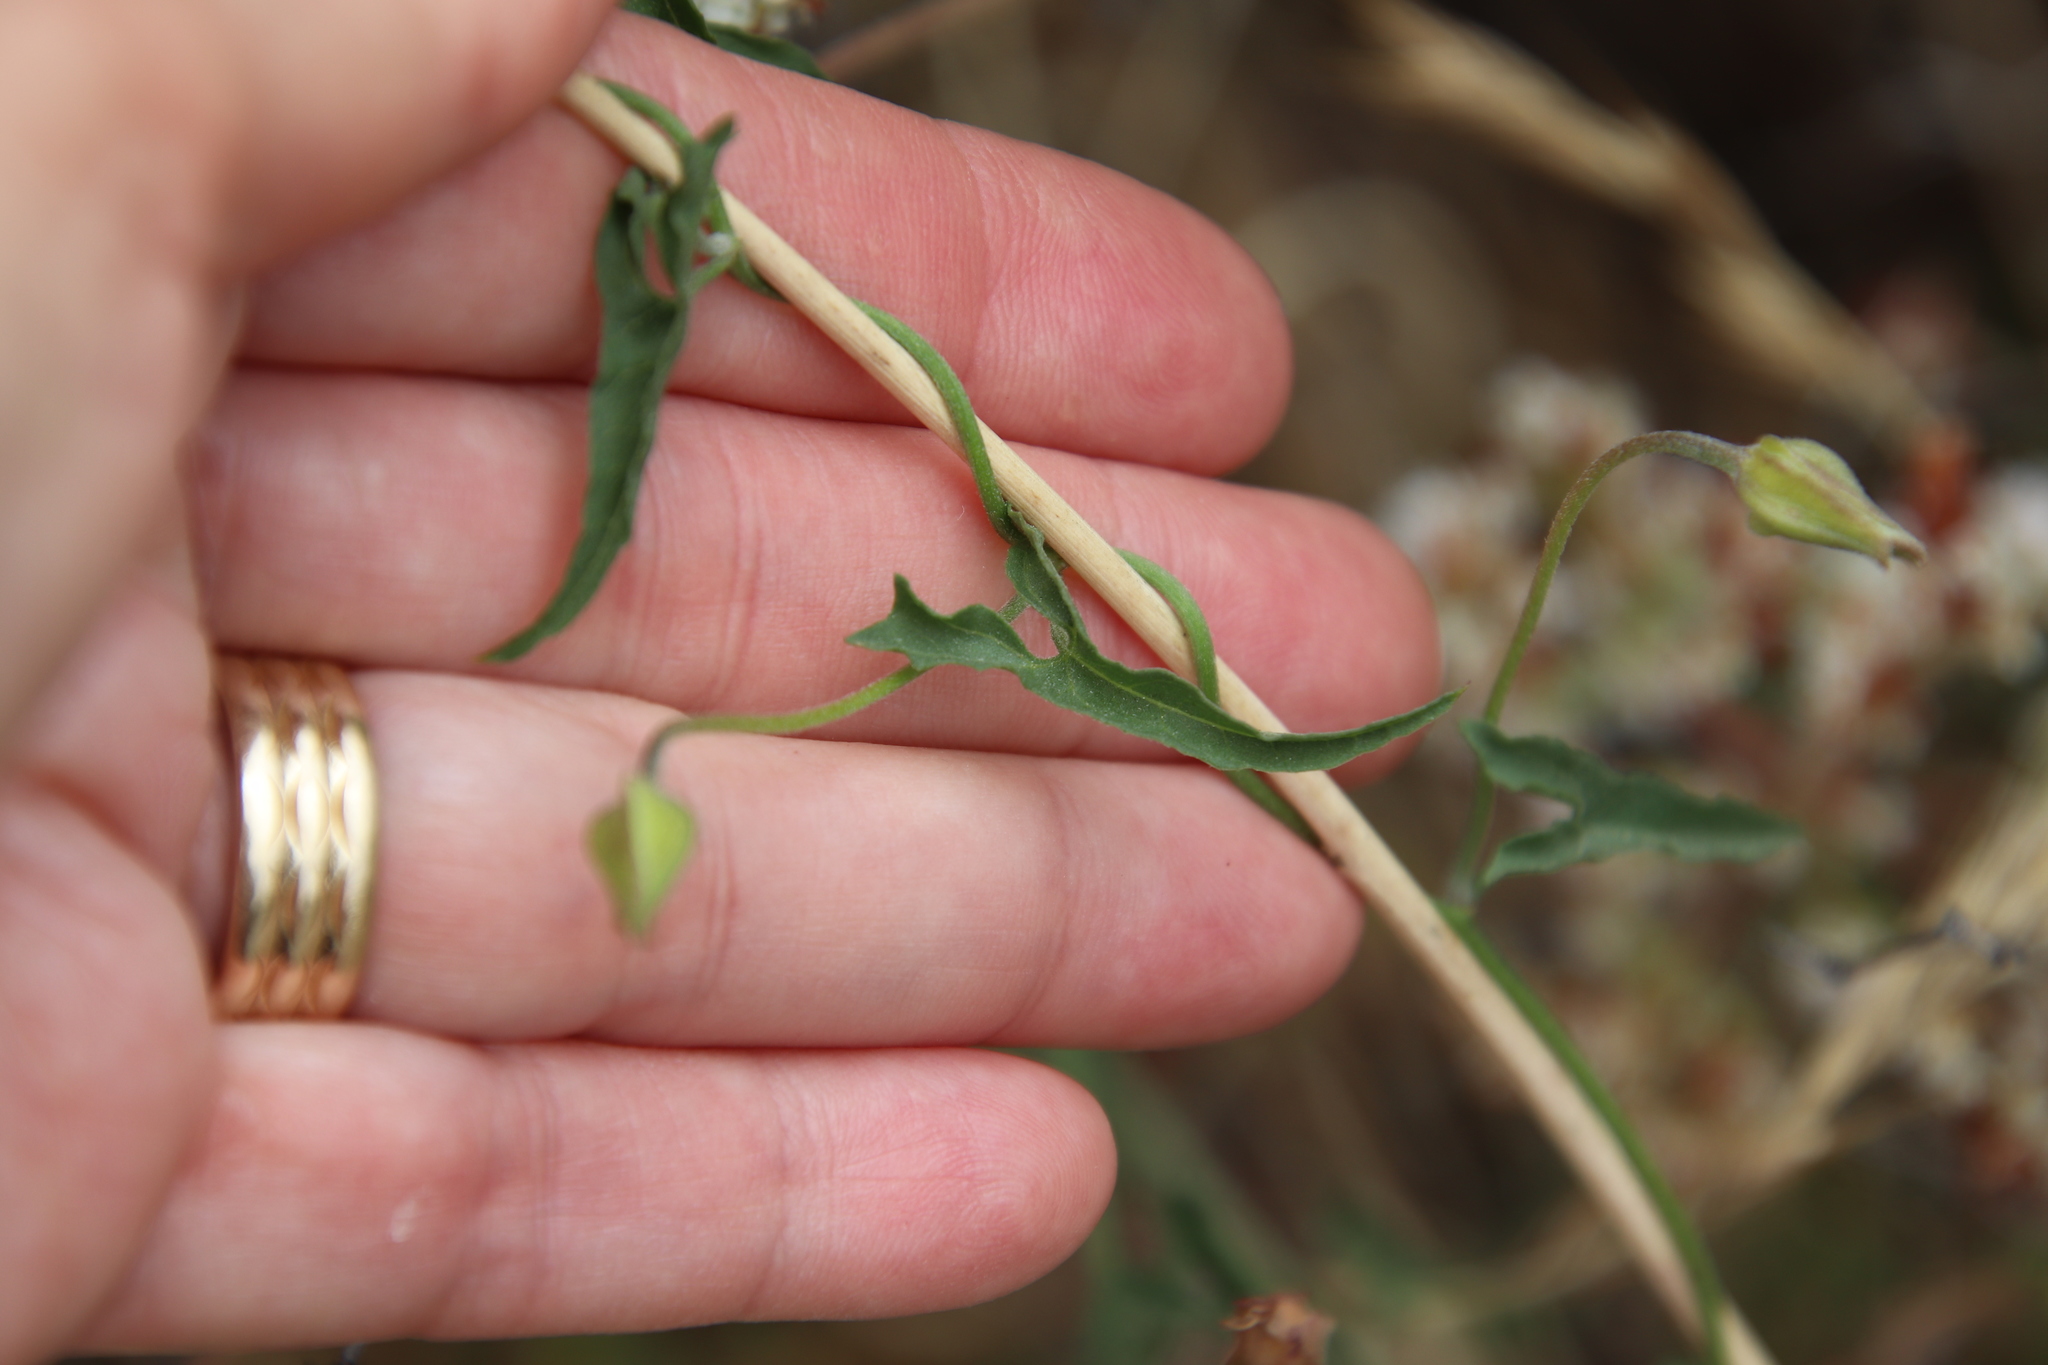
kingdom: Plantae
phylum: Tracheophyta
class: Magnoliopsida
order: Solanales
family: Convolvulaceae
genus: Calystegia
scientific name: Calystegia macrostegia
